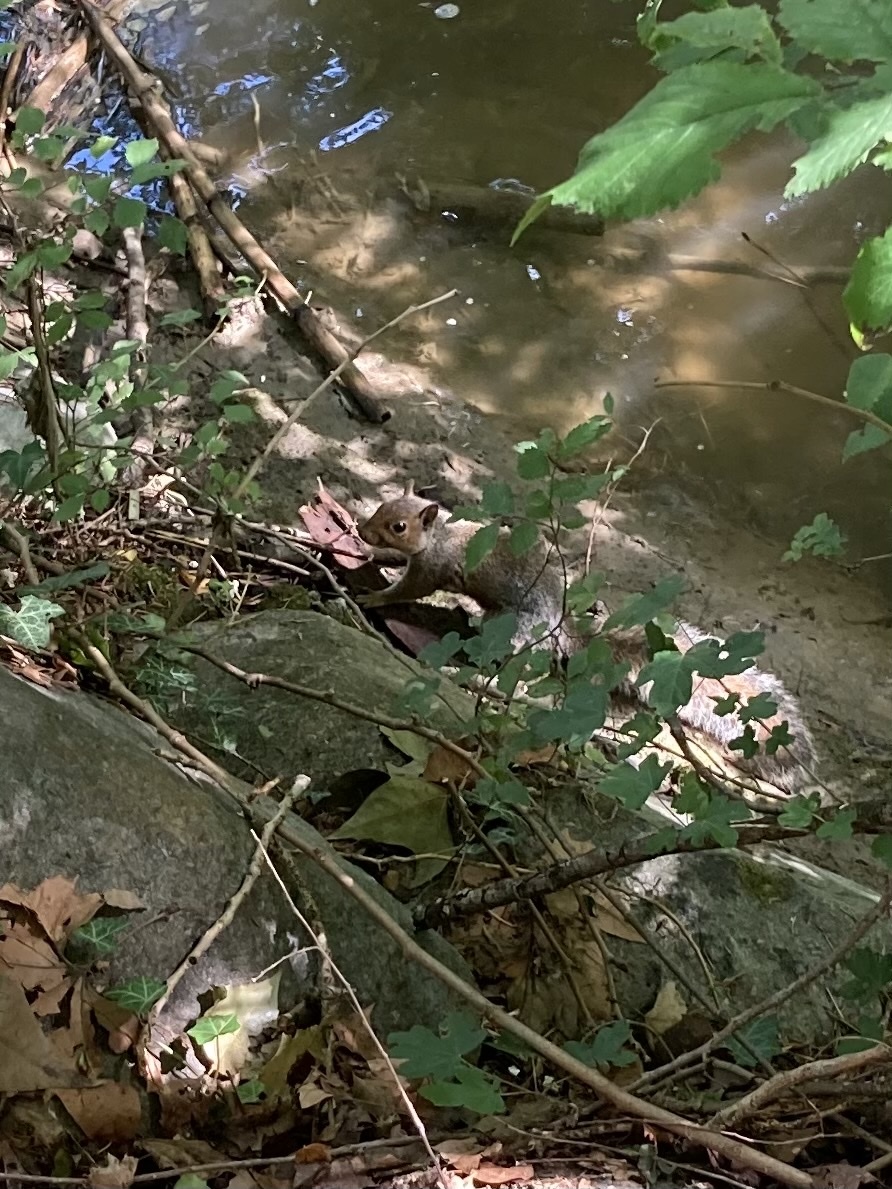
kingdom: Animalia
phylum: Chordata
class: Mammalia
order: Rodentia
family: Sciuridae
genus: Sciurus
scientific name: Sciurus carolinensis
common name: Eastern gray squirrel
